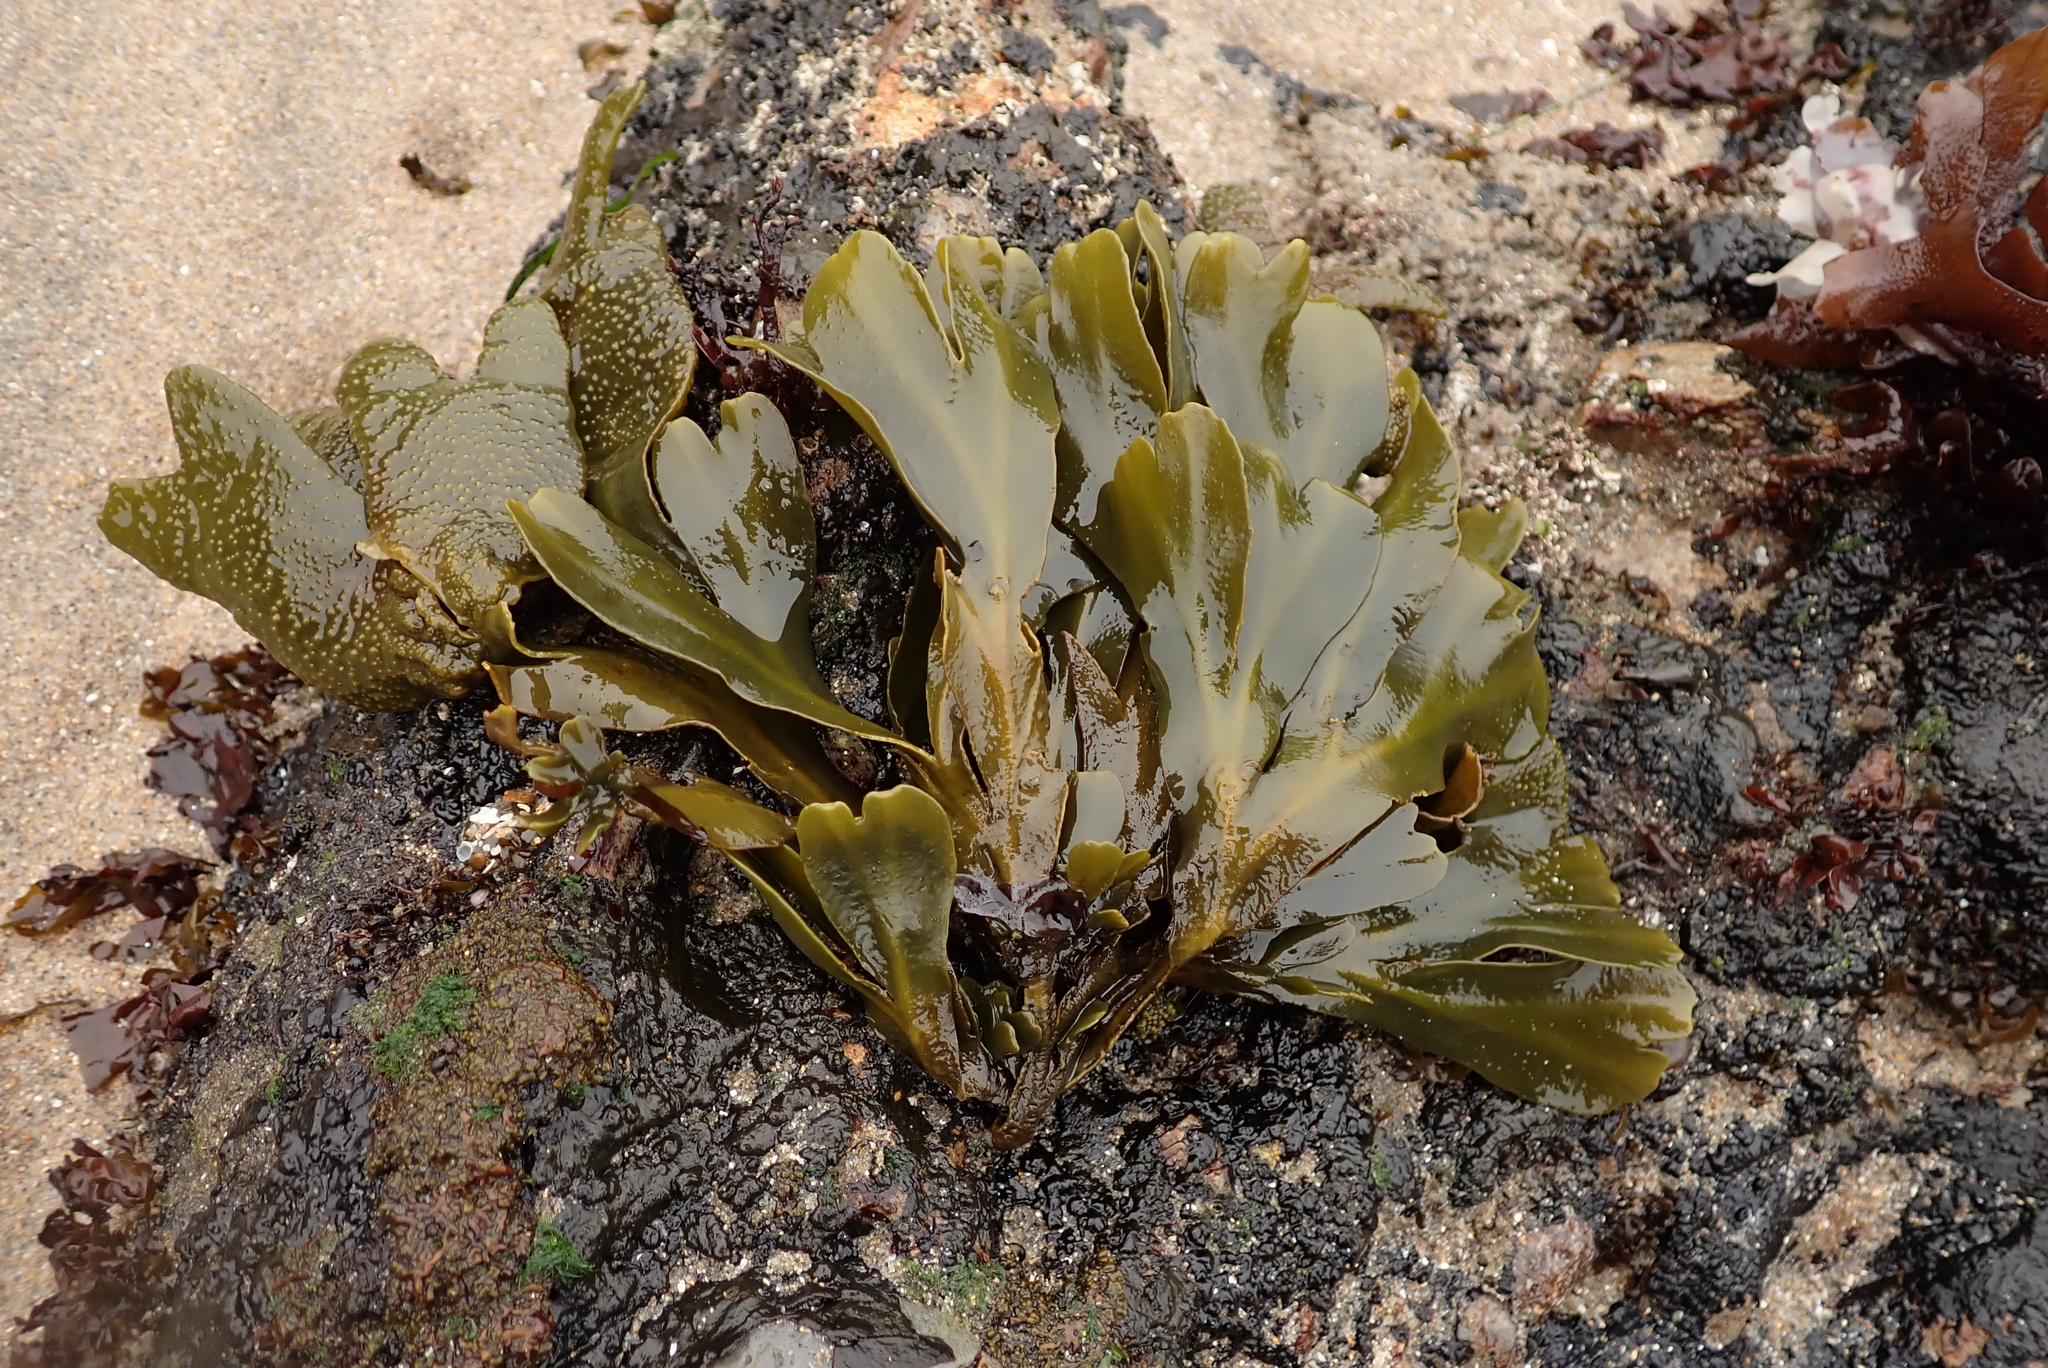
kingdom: Chromista
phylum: Ochrophyta
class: Phaeophyceae
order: Fucales
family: Fucaceae
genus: Fucus
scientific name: Fucus distichus
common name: Rockweed
